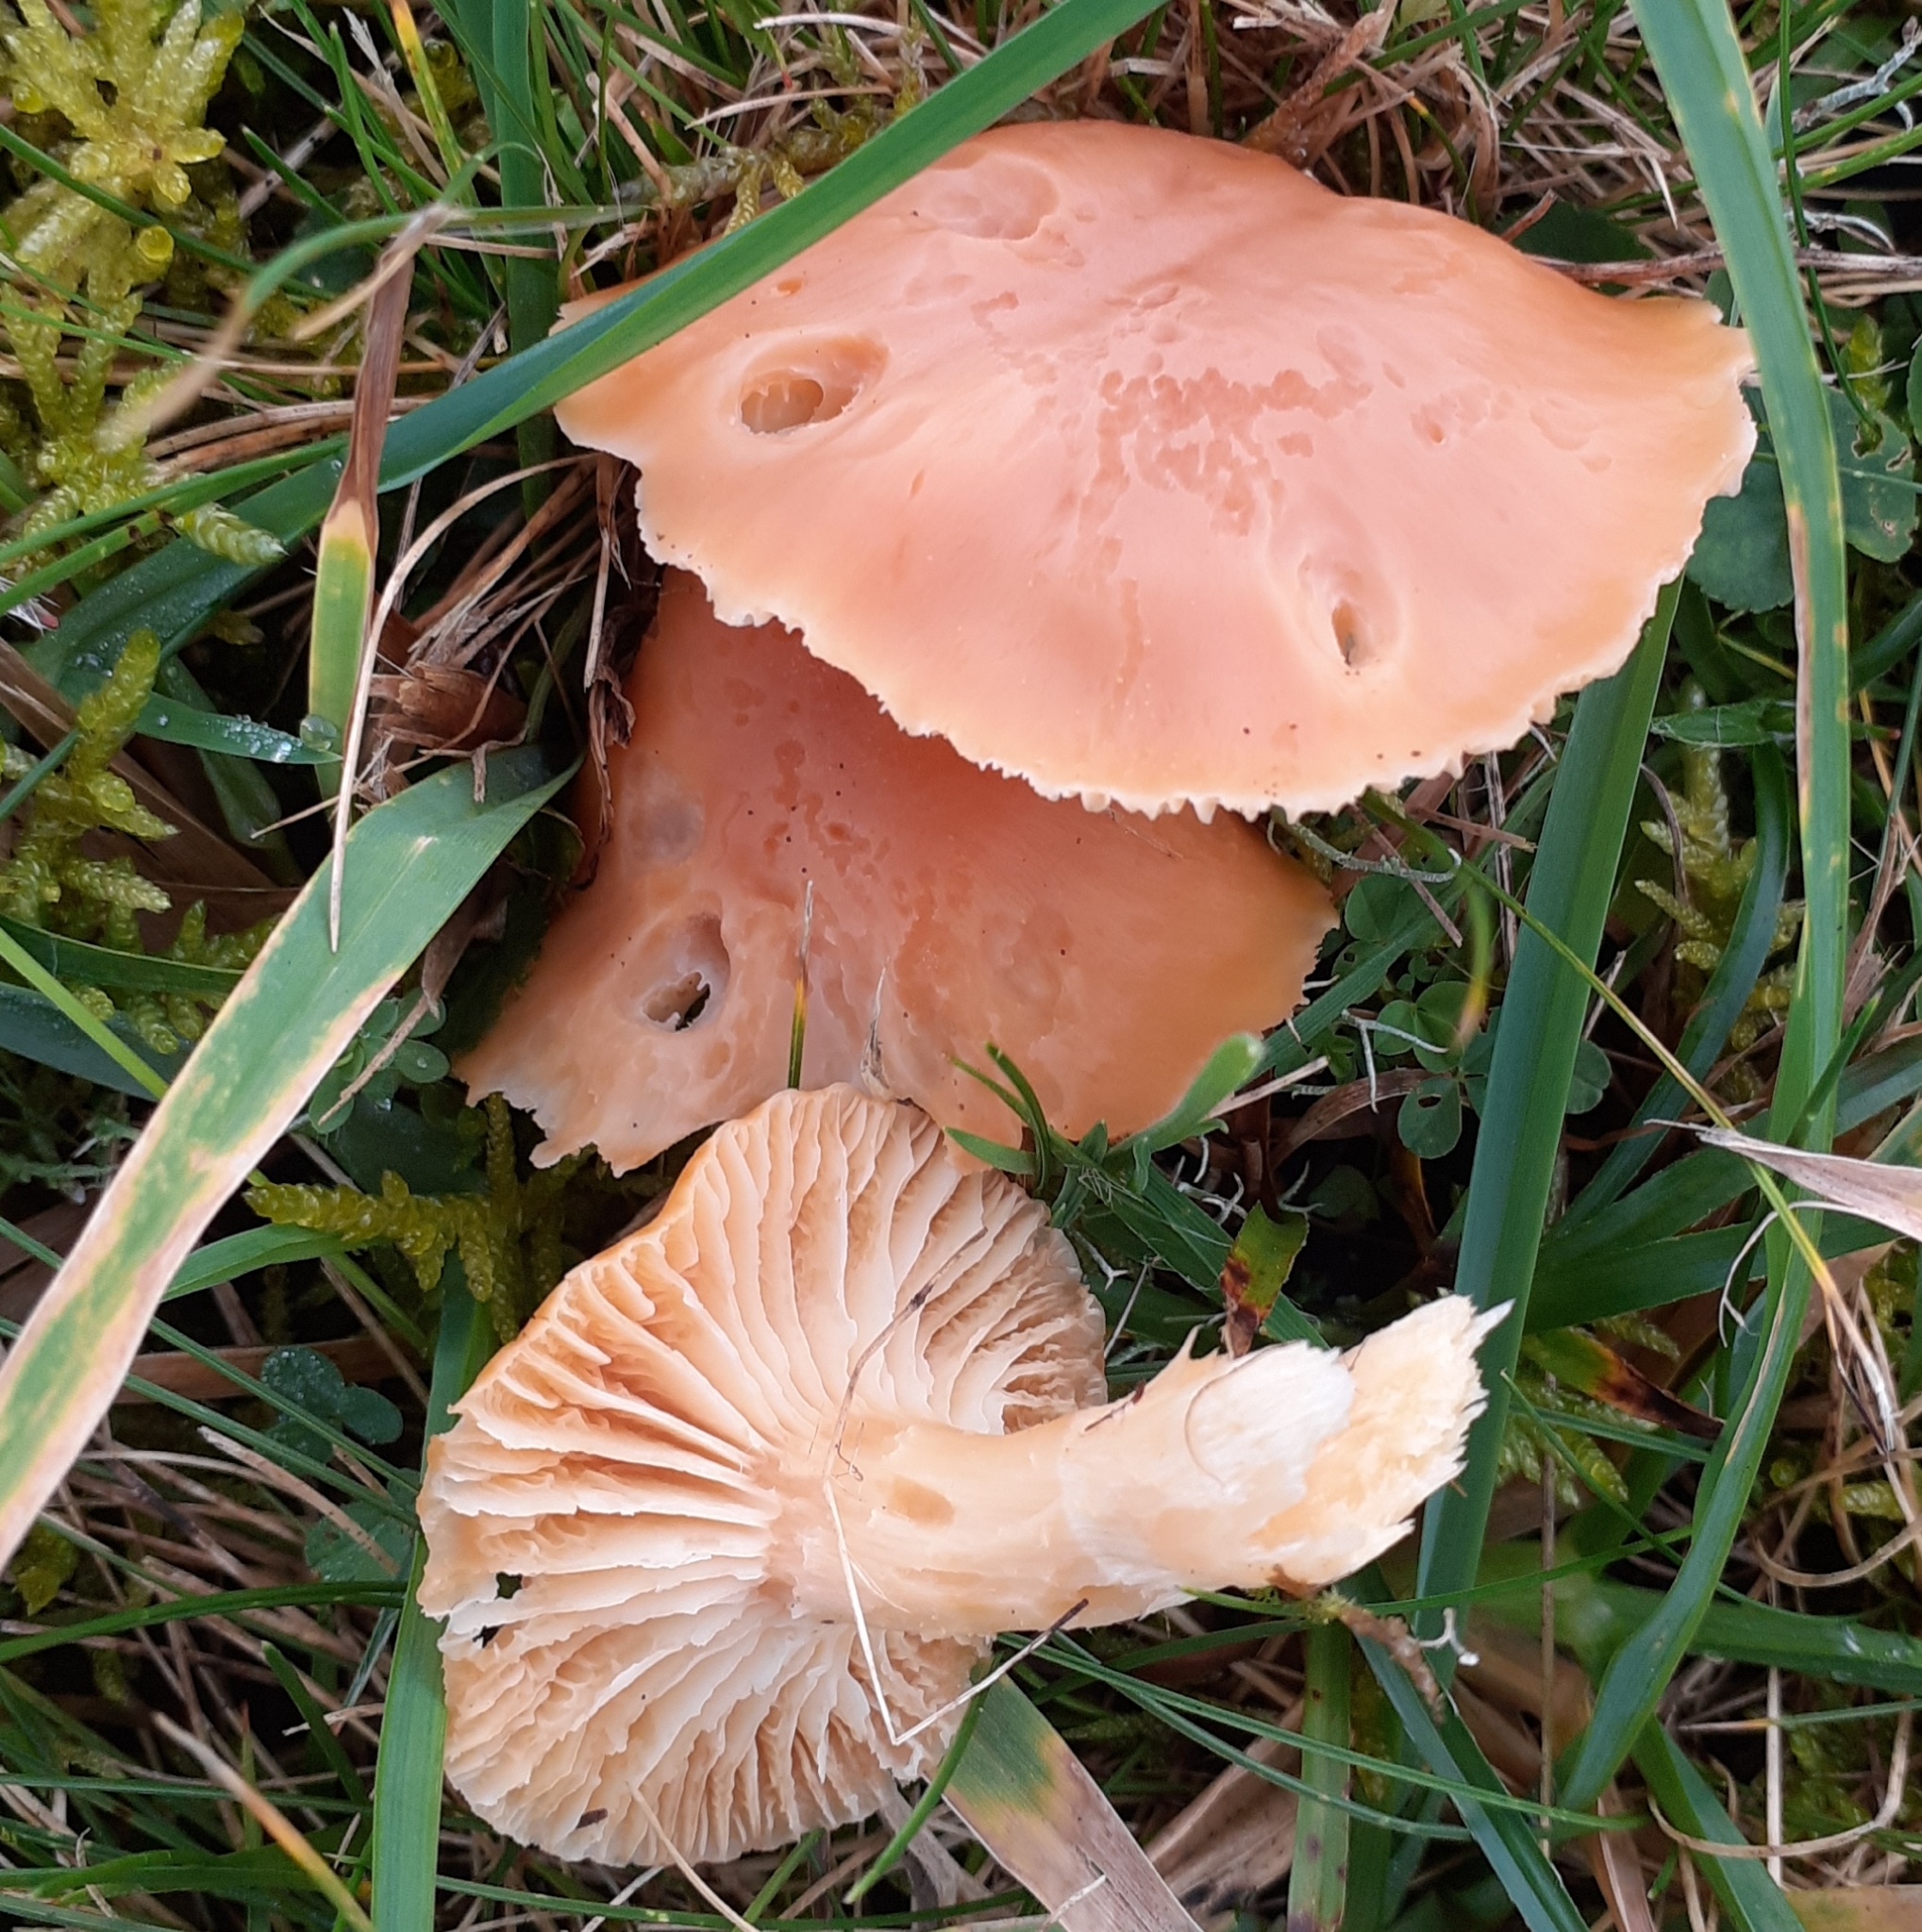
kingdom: Fungi
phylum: Basidiomycota
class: Agaricomycetes
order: Agaricales
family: Hygrophoraceae
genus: Cuphophyllus
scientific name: Cuphophyllus pratensis
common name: Meadow waxcap
